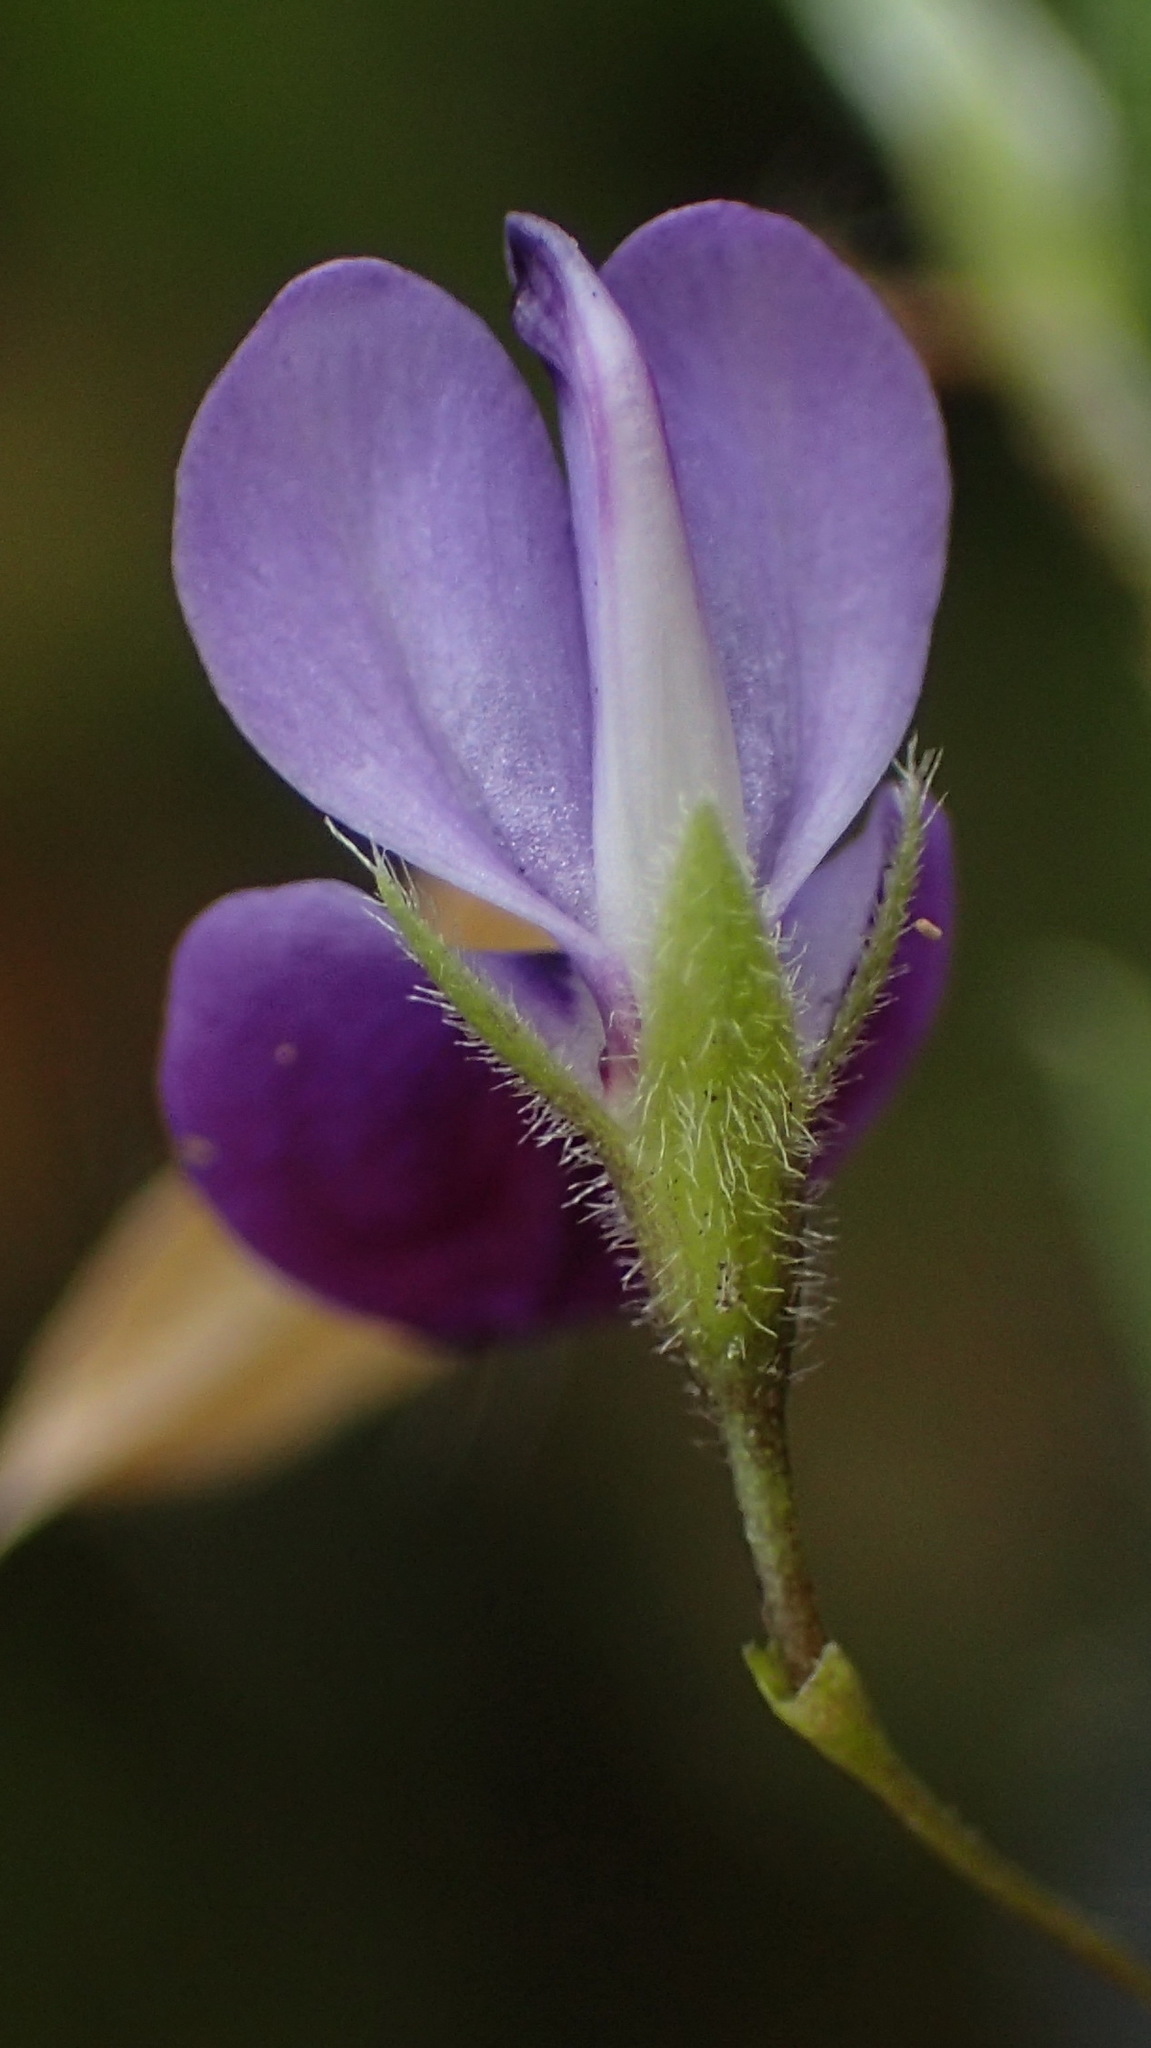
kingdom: Plantae
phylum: Tracheophyta
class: Magnoliopsida
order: Fabales
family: Fabaceae
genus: Psoralea
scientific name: Psoralea plauta
